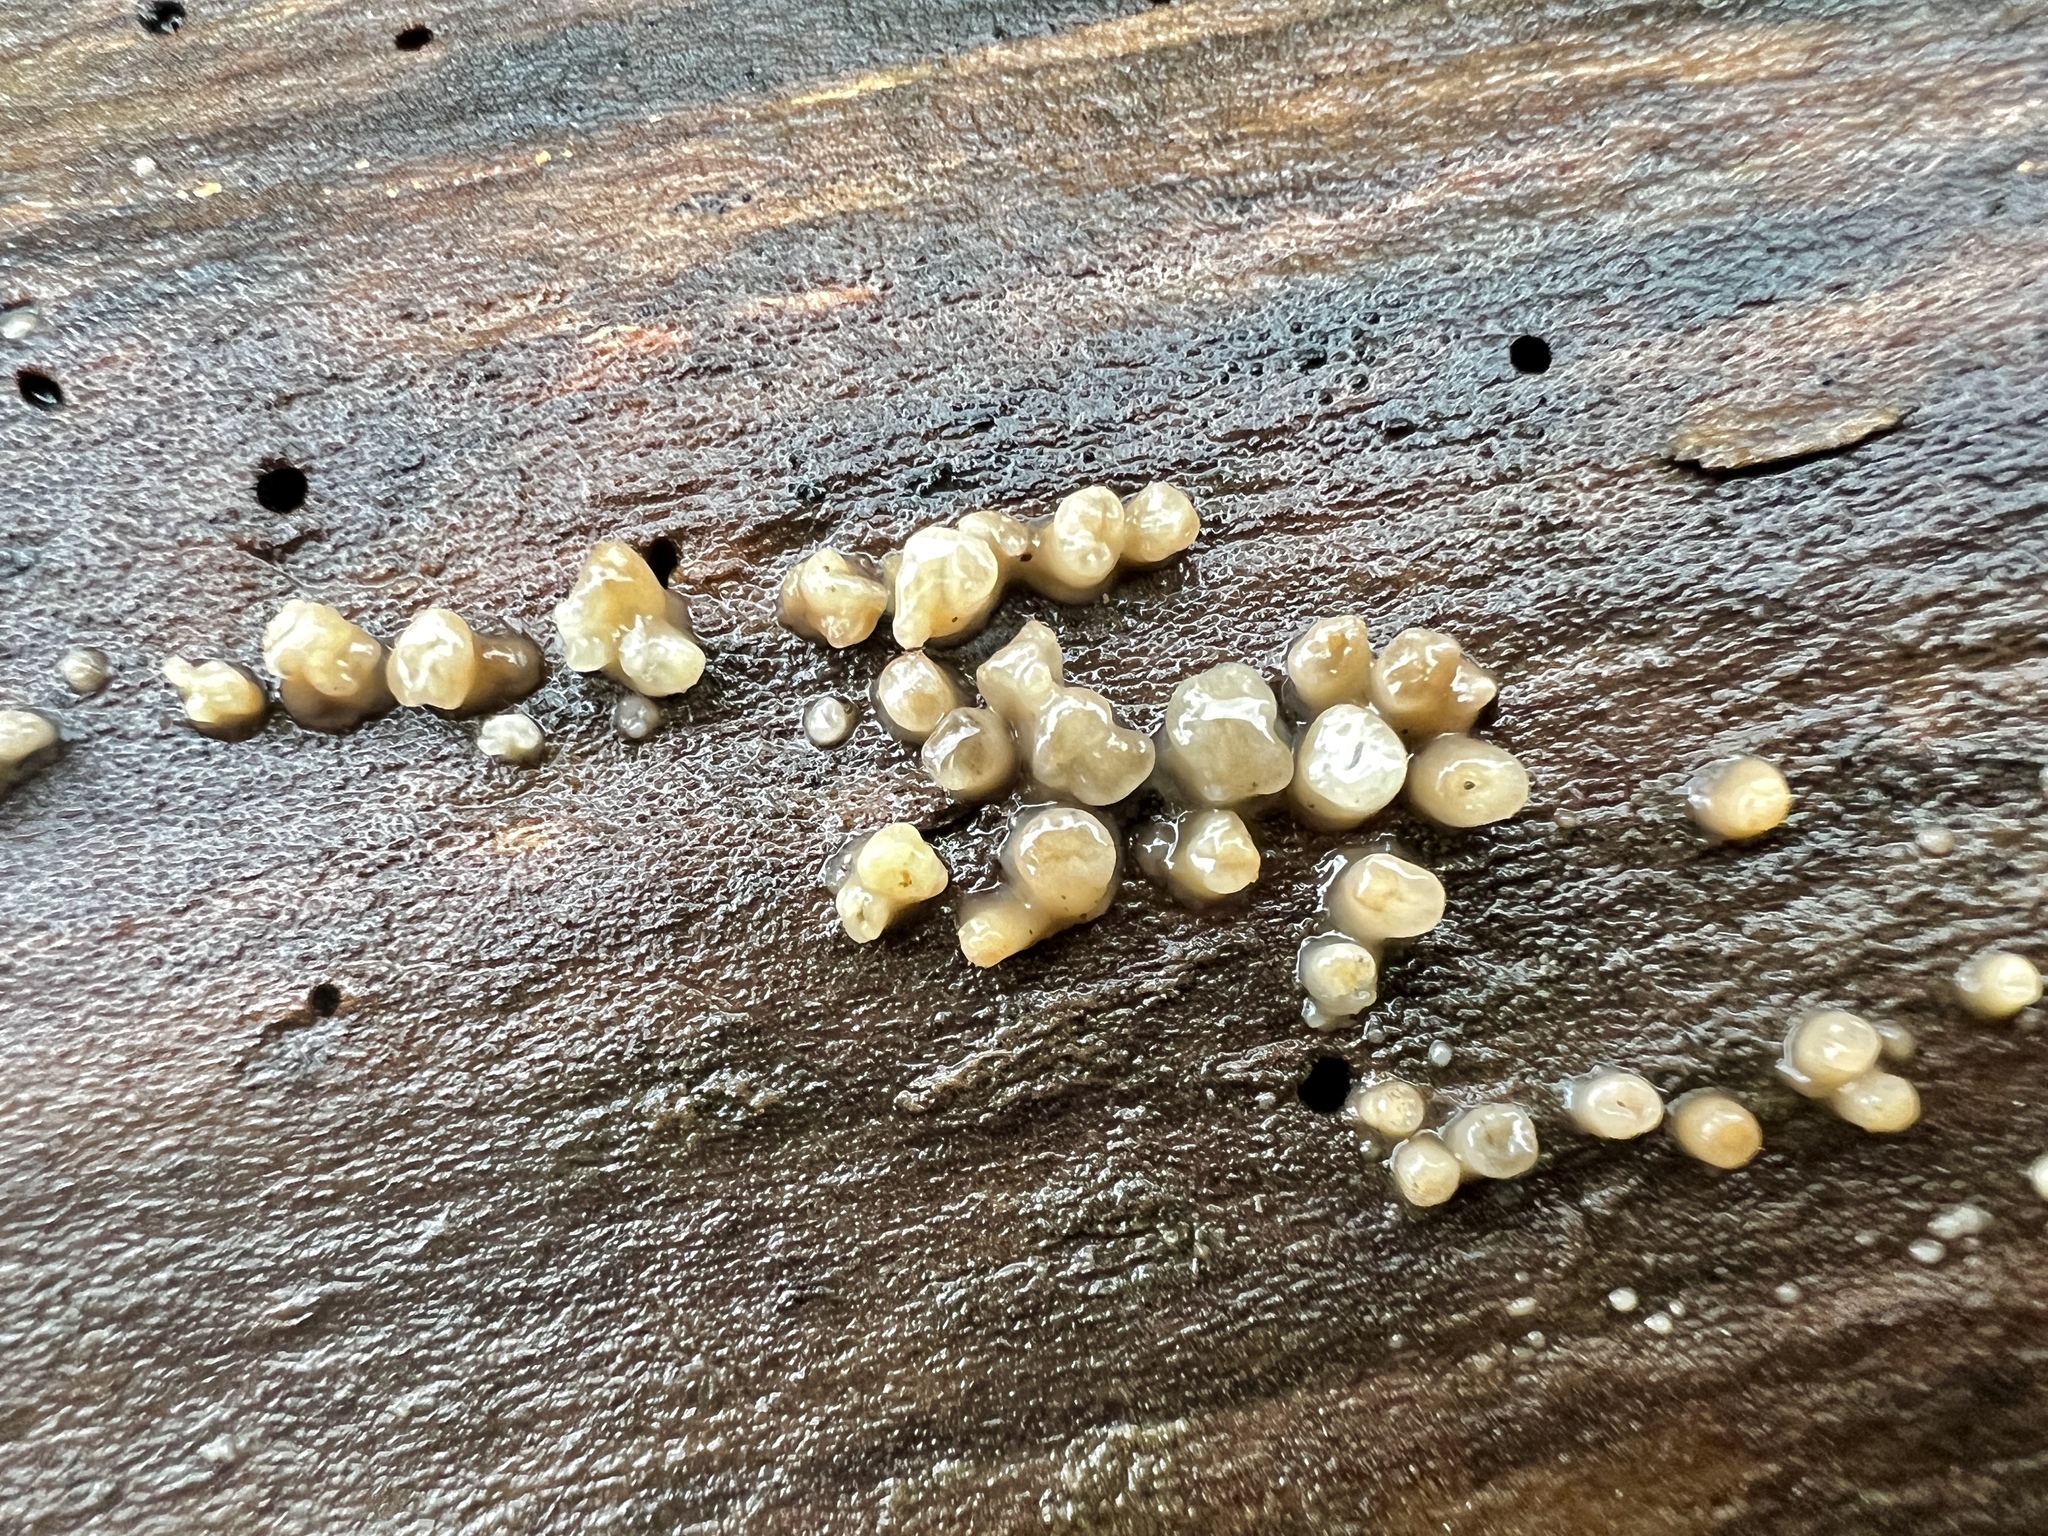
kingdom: Fungi
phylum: Basidiomycota
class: Atractiellomycetes
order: Atractiellales
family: Phleogenaceae
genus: Helicogloea
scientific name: Helicogloea compressa
